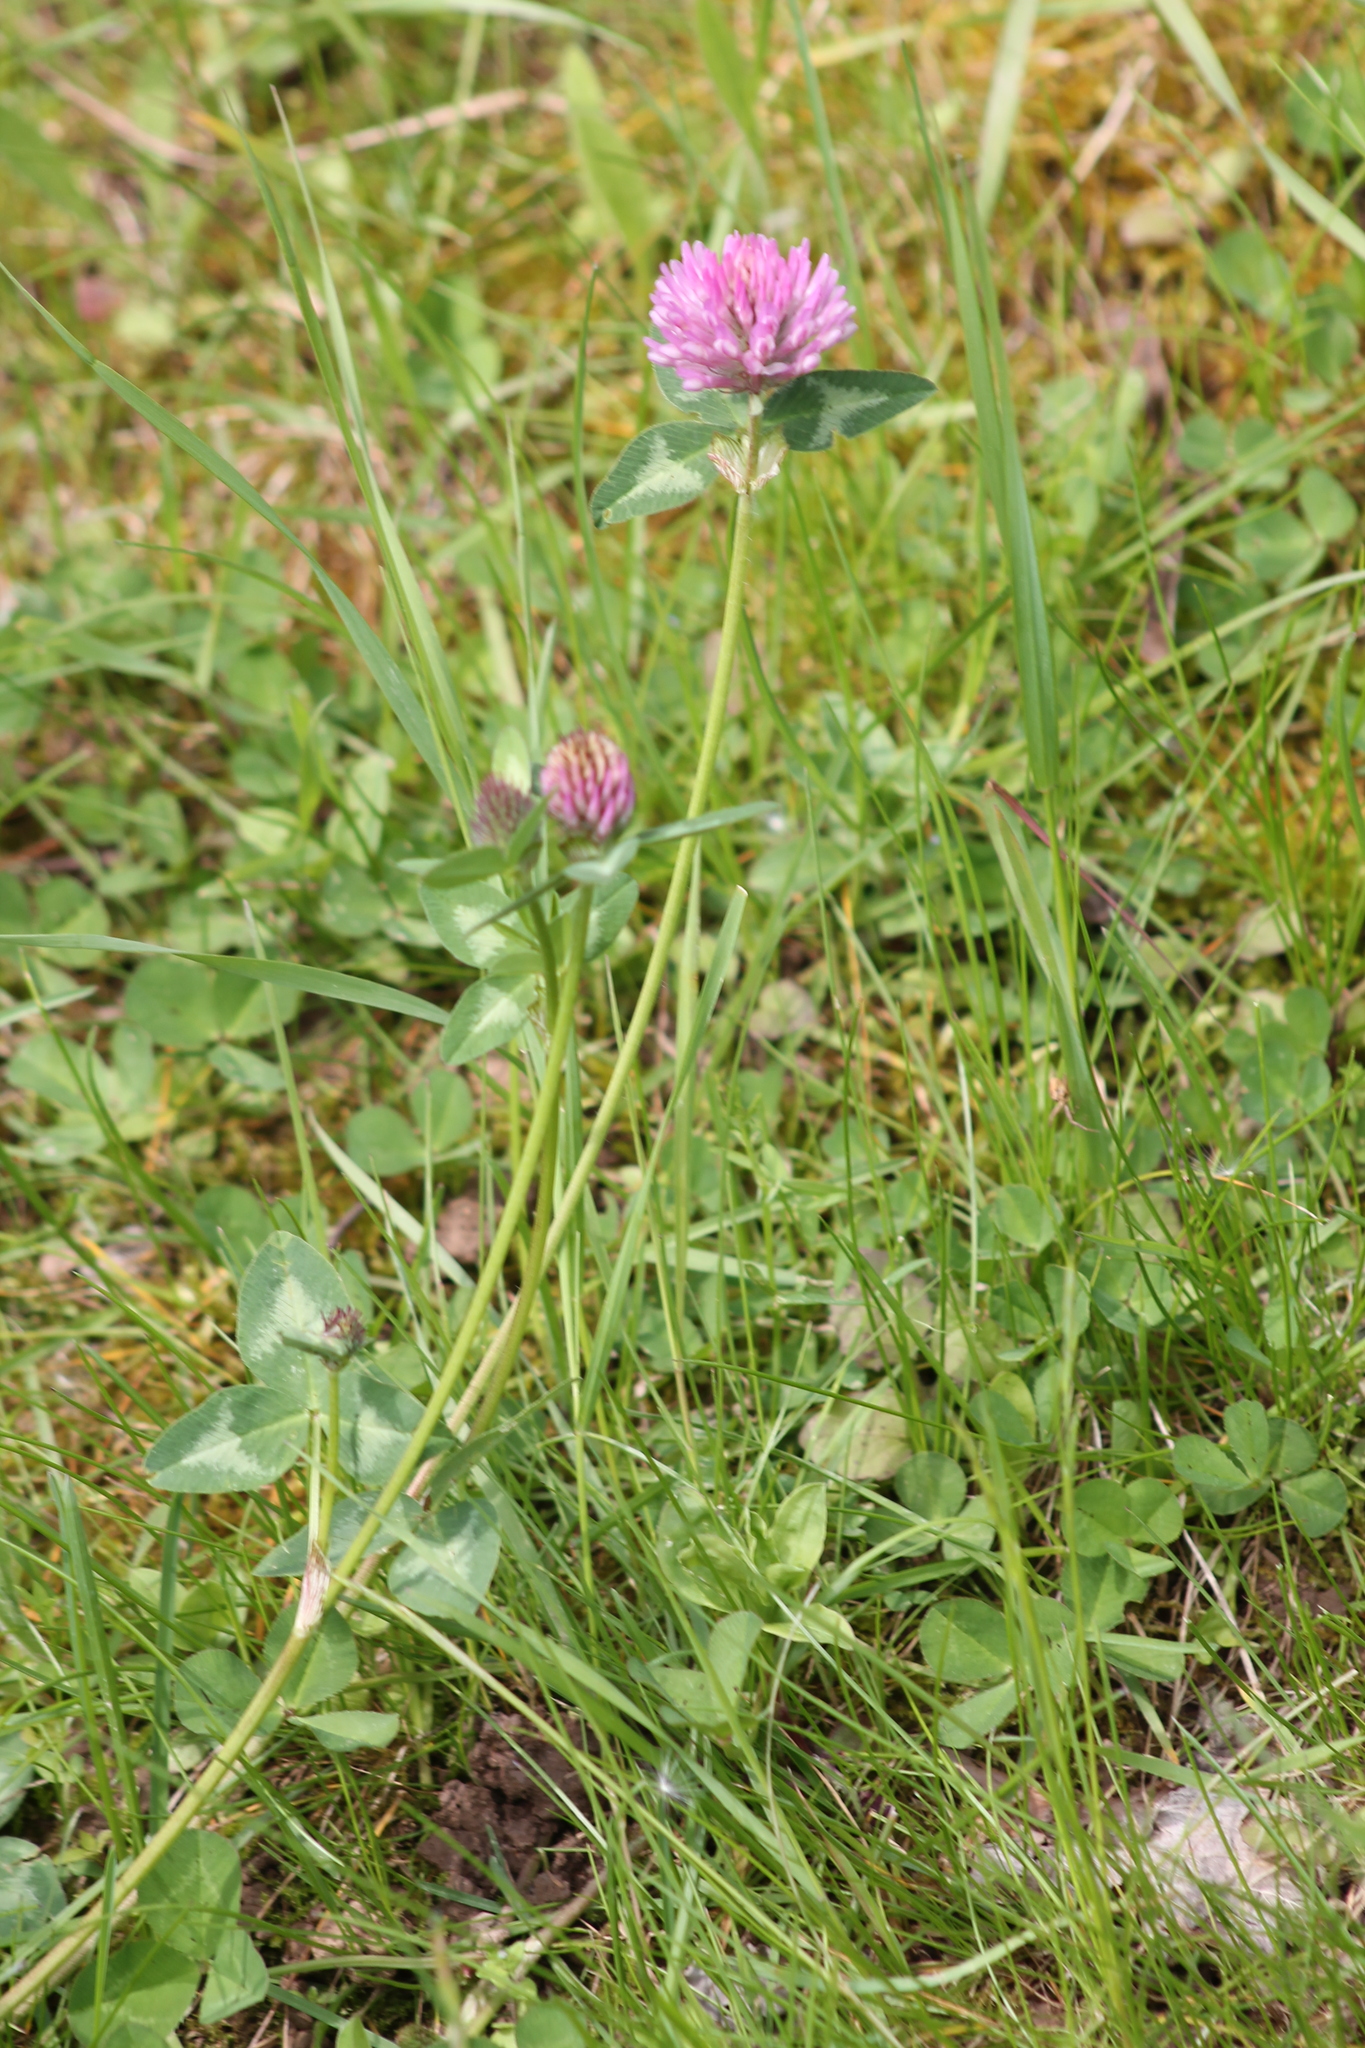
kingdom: Plantae
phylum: Tracheophyta
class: Magnoliopsida
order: Fabales
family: Fabaceae
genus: Trifolium
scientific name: Trifolium pratense
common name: Red clover
